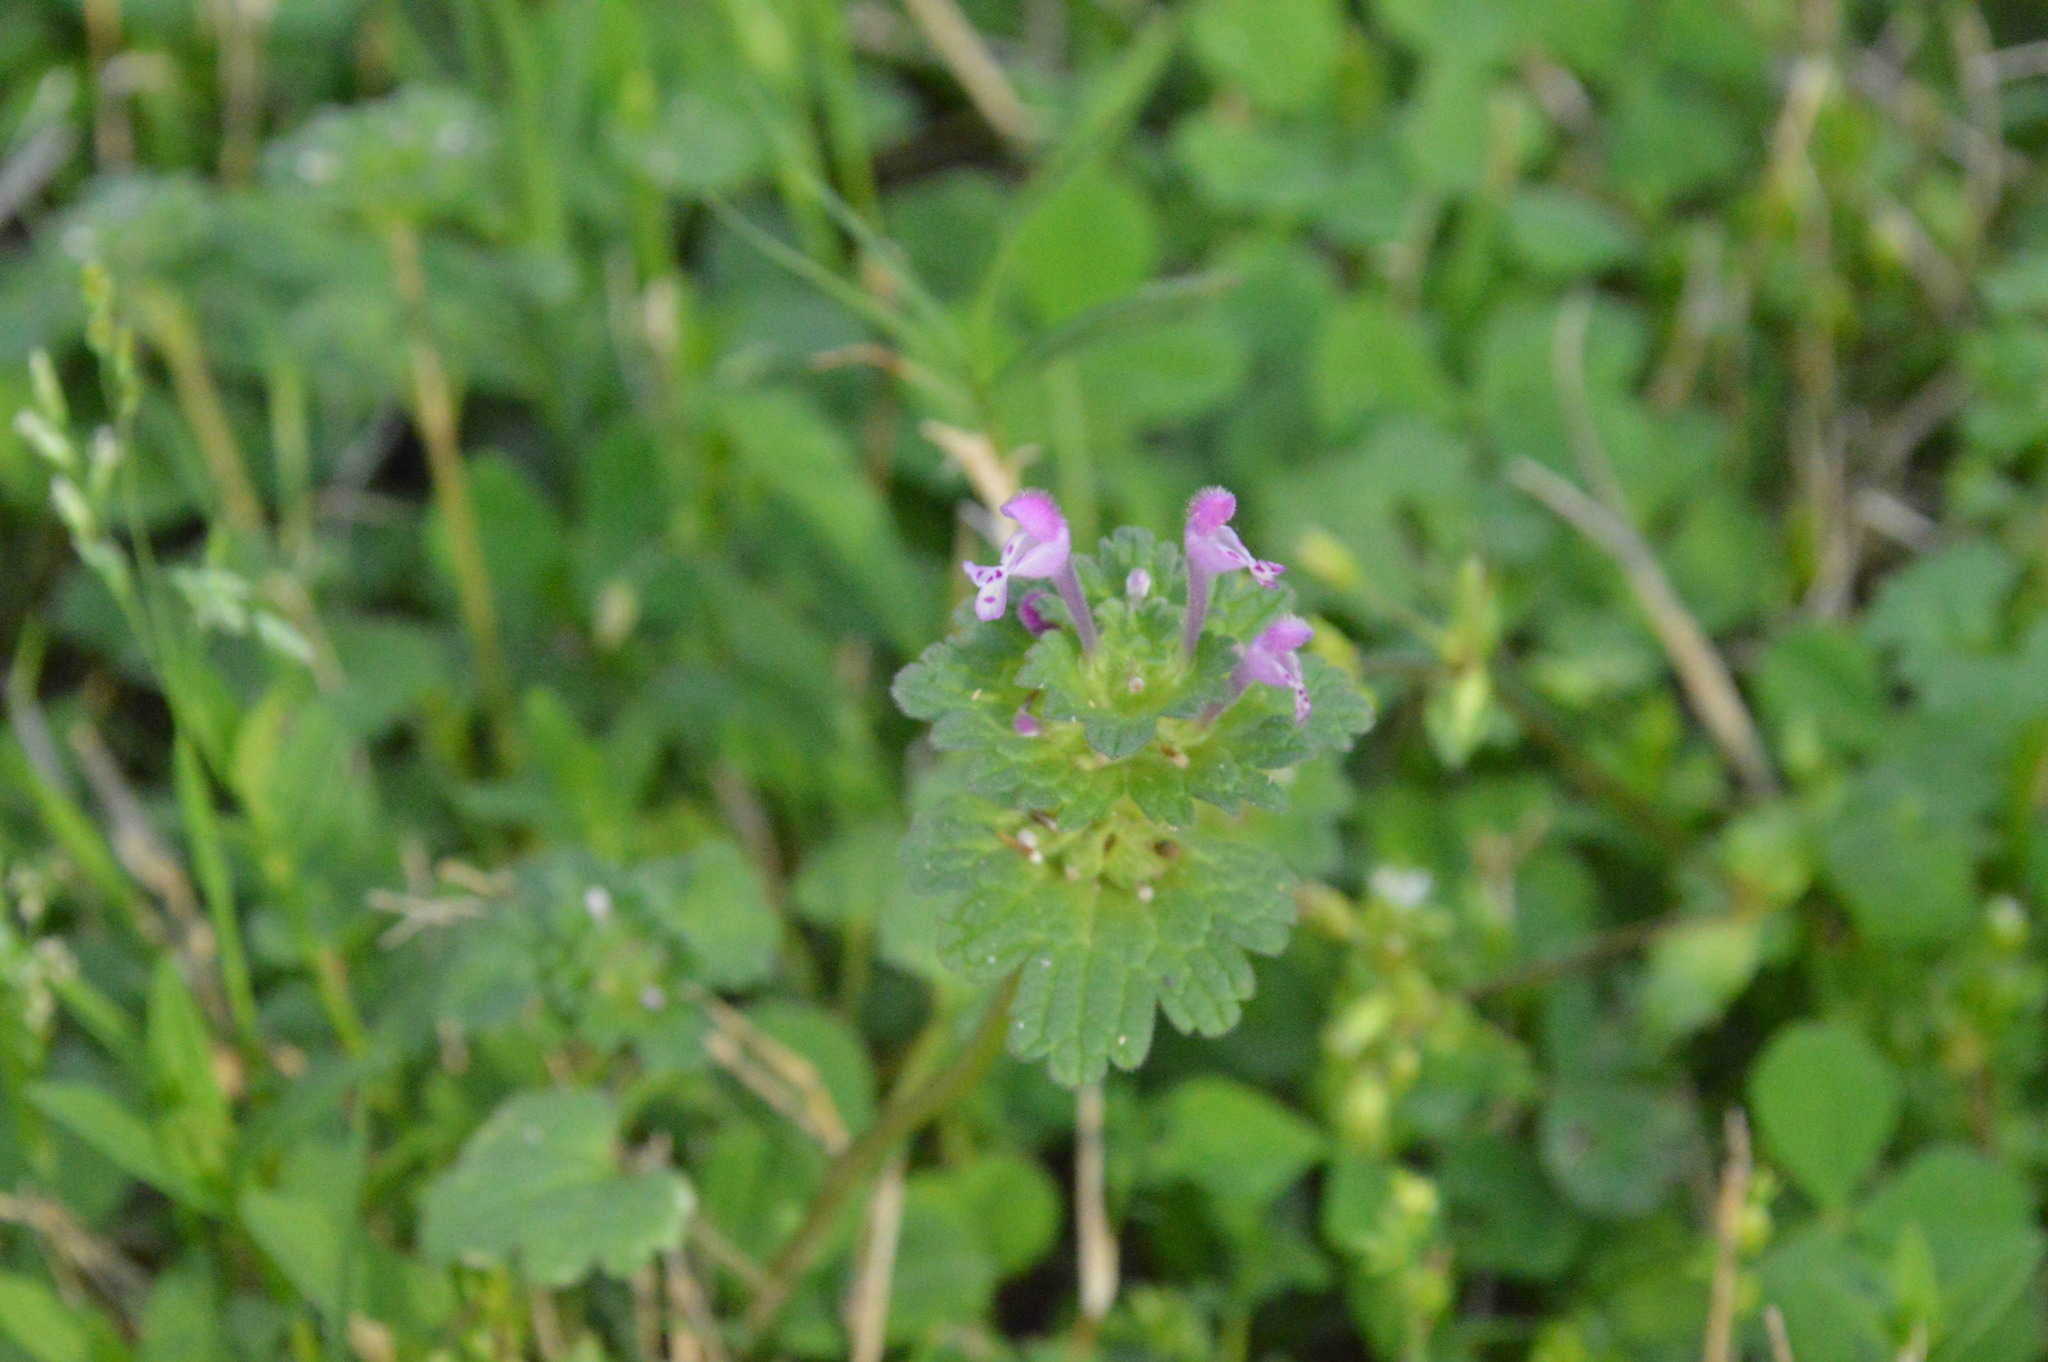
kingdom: Plantae
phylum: Tracheophyta
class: Magnoliopsida
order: Lamiales
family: Lamiaceae
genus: Lamium
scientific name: Lamium amplexicaule
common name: Henbit dead-nettle
